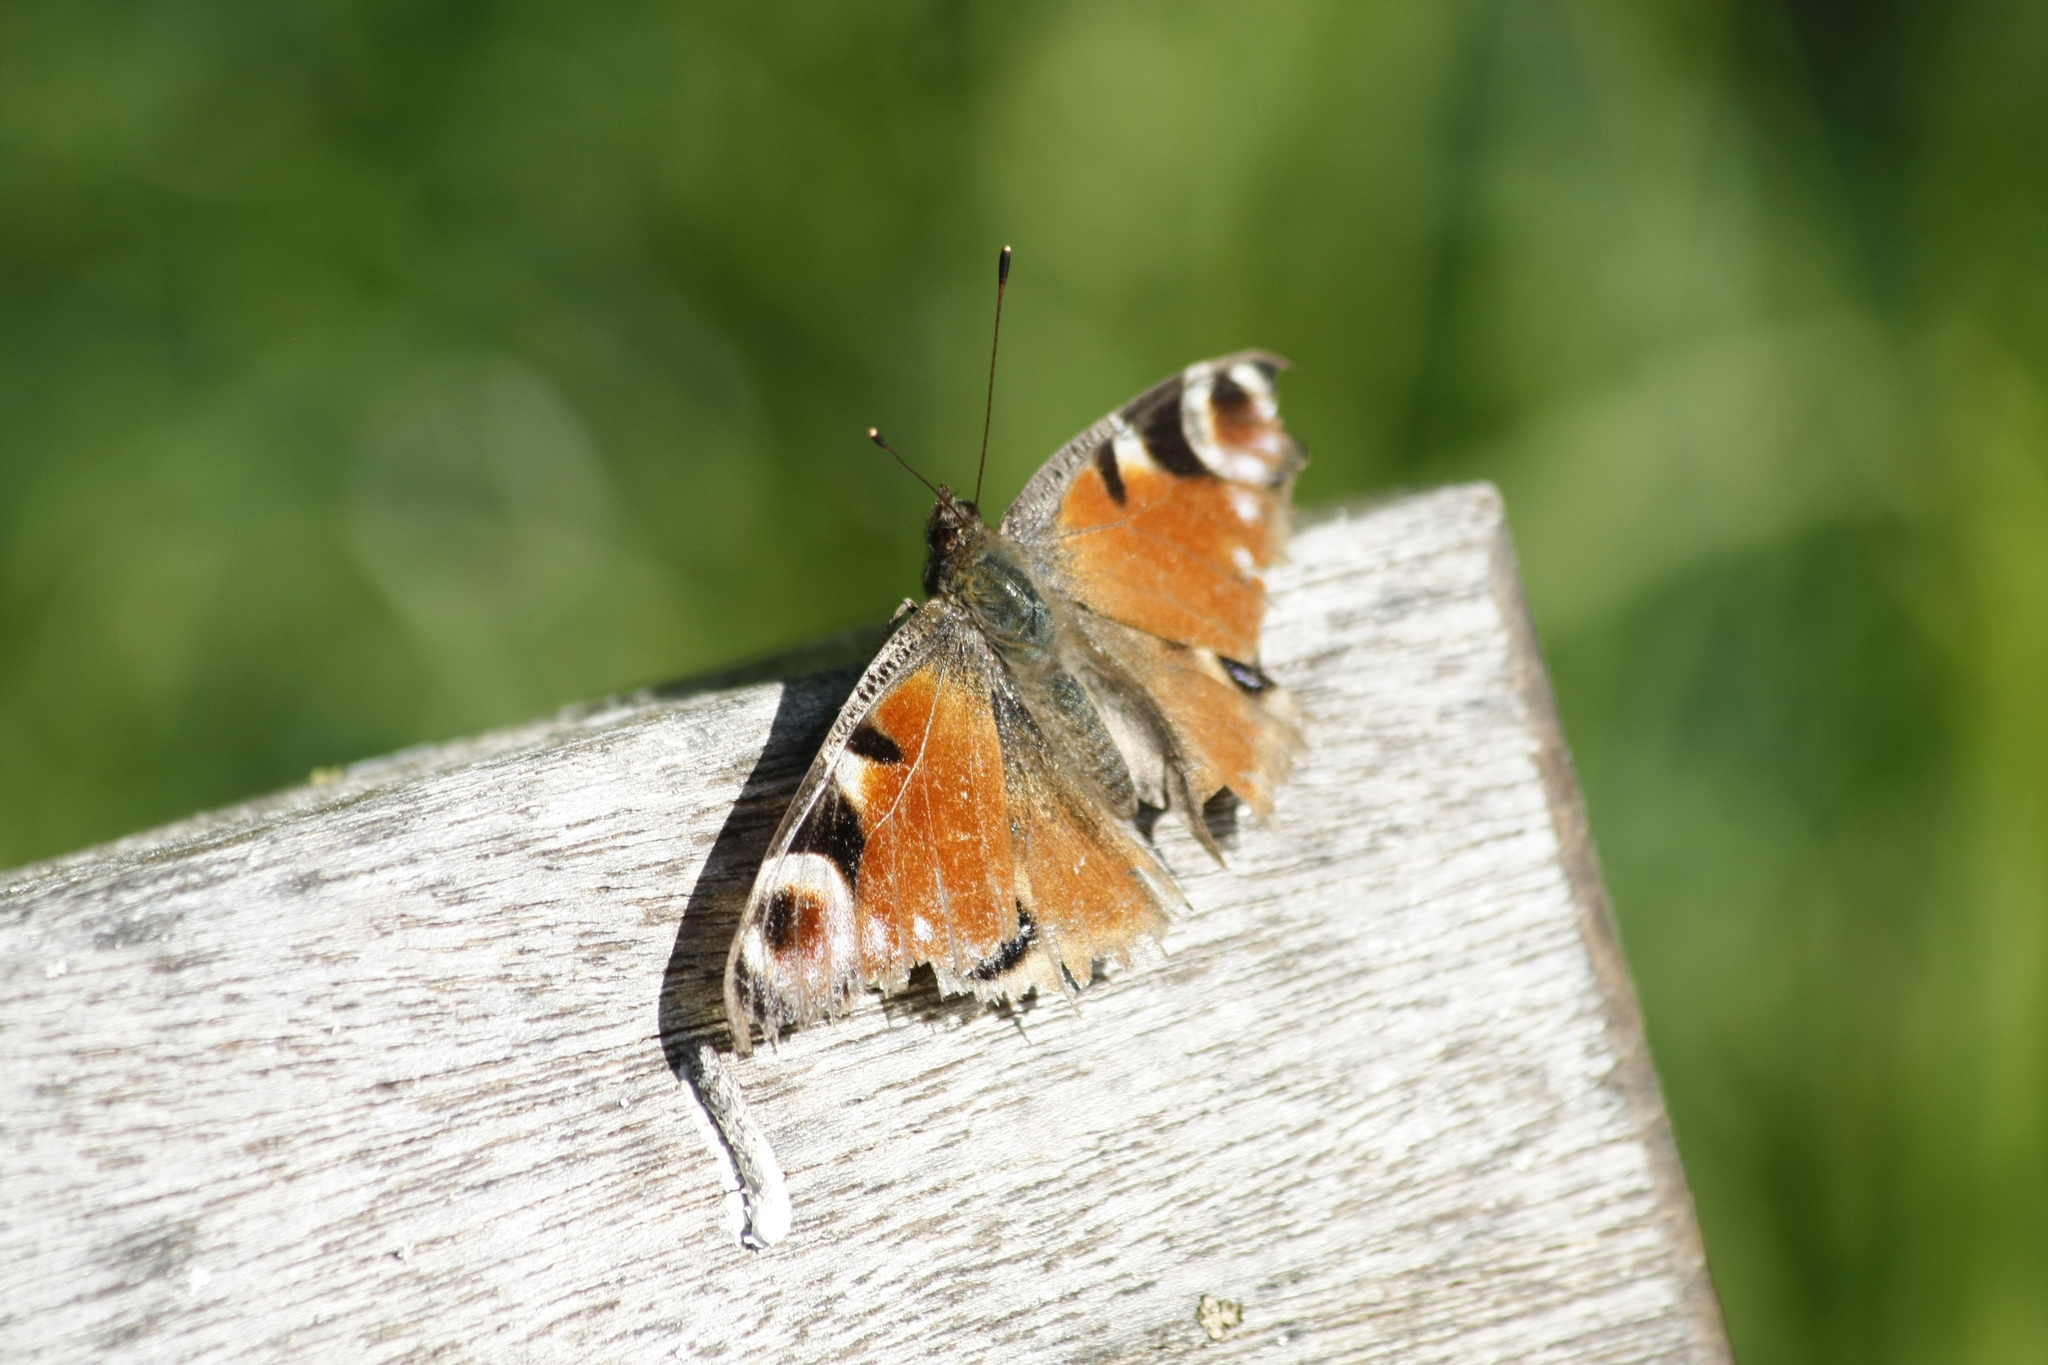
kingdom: Animalia
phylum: Arthropoda
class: Insecta
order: Lepidoptera
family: Nymphalidae
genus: Aglais
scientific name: Aglais io
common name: Peacock
